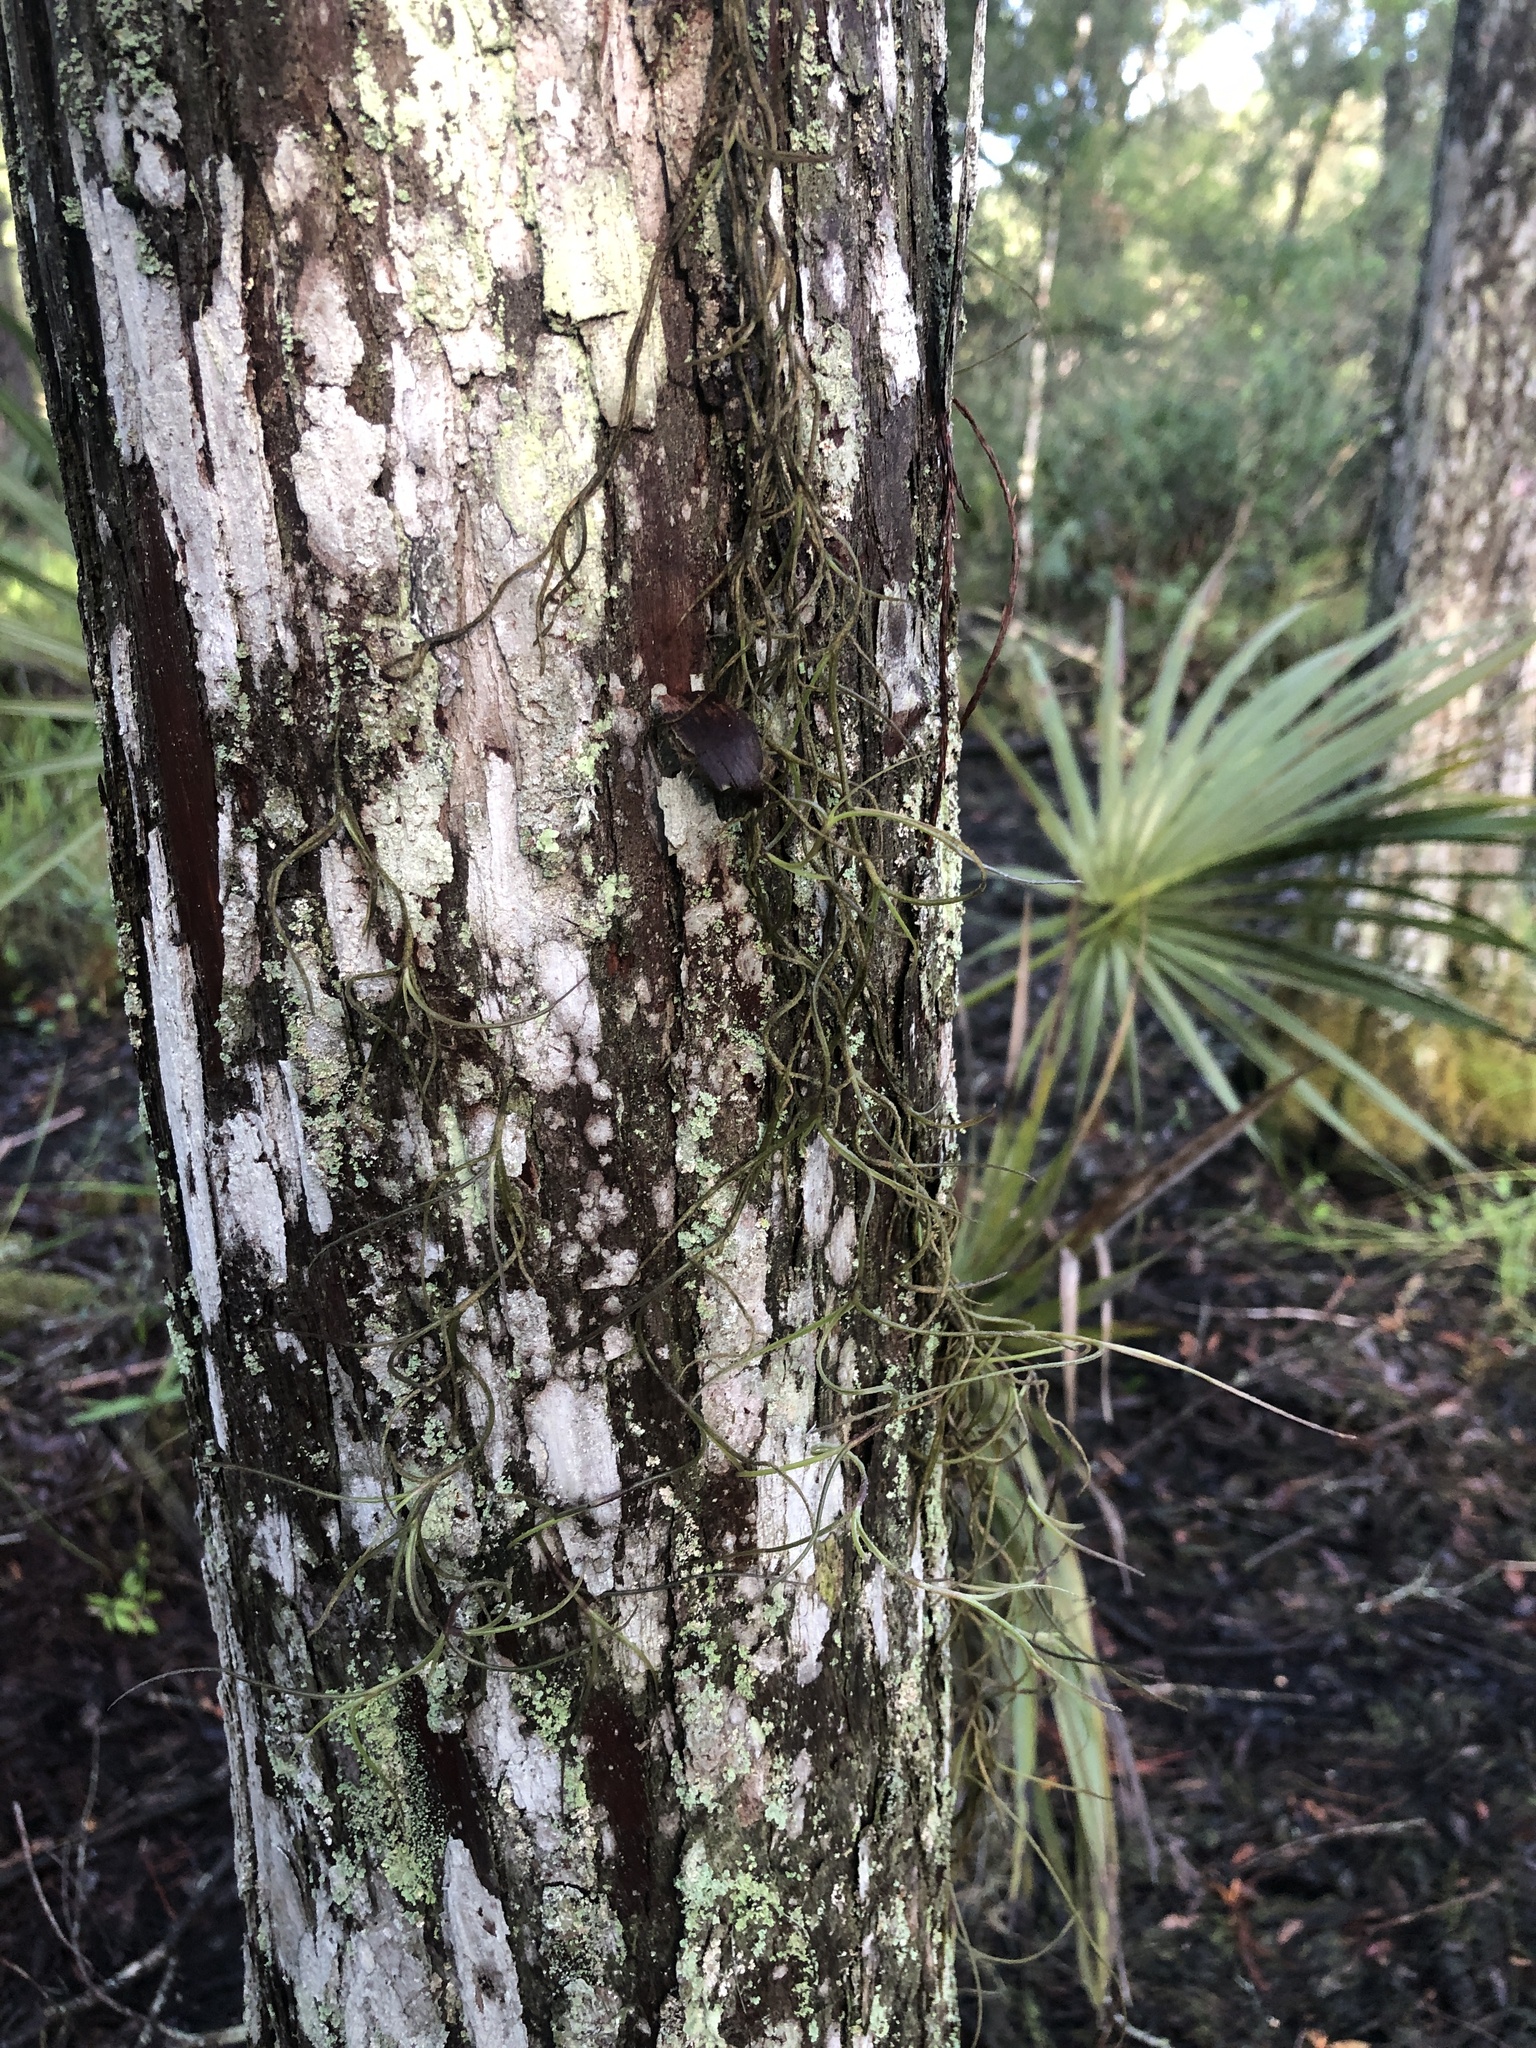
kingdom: Plantae
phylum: Tracheophyta
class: Liliopsida
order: Poales
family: Bromeliaceae
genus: Tillandsia
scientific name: Tillandsia usneoides
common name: Spanish moss
